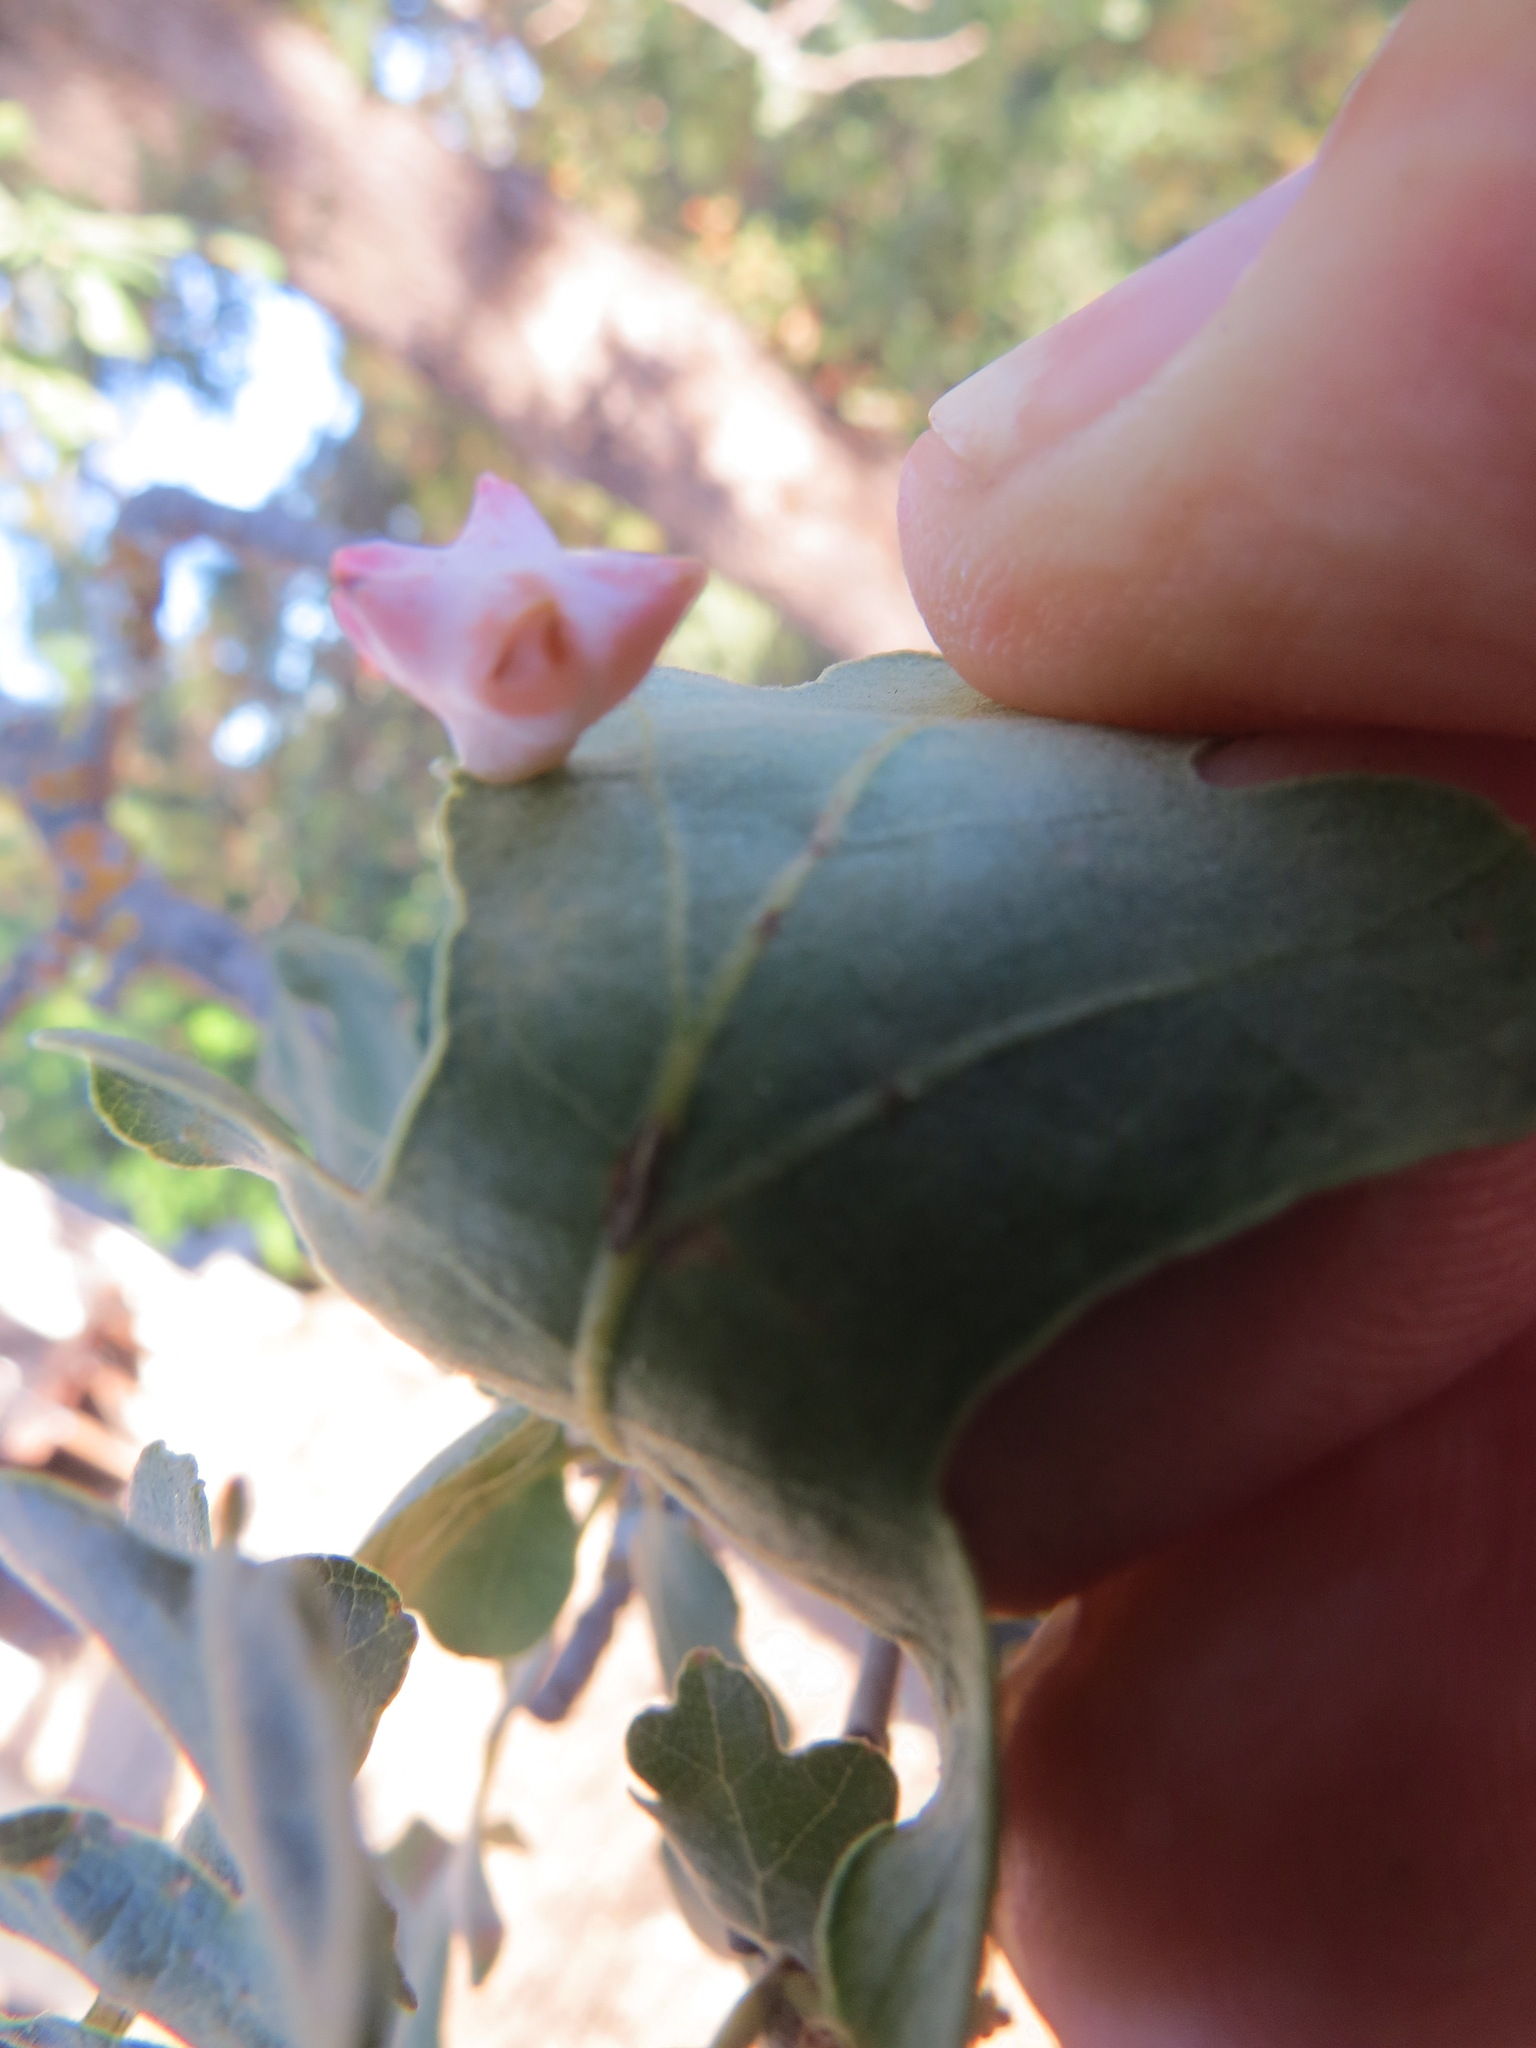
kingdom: Animalia
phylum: Arthropoda
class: Insecta
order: Hymenoptera
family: Cynipidae
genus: Cynips
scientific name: Cynips douglasi
